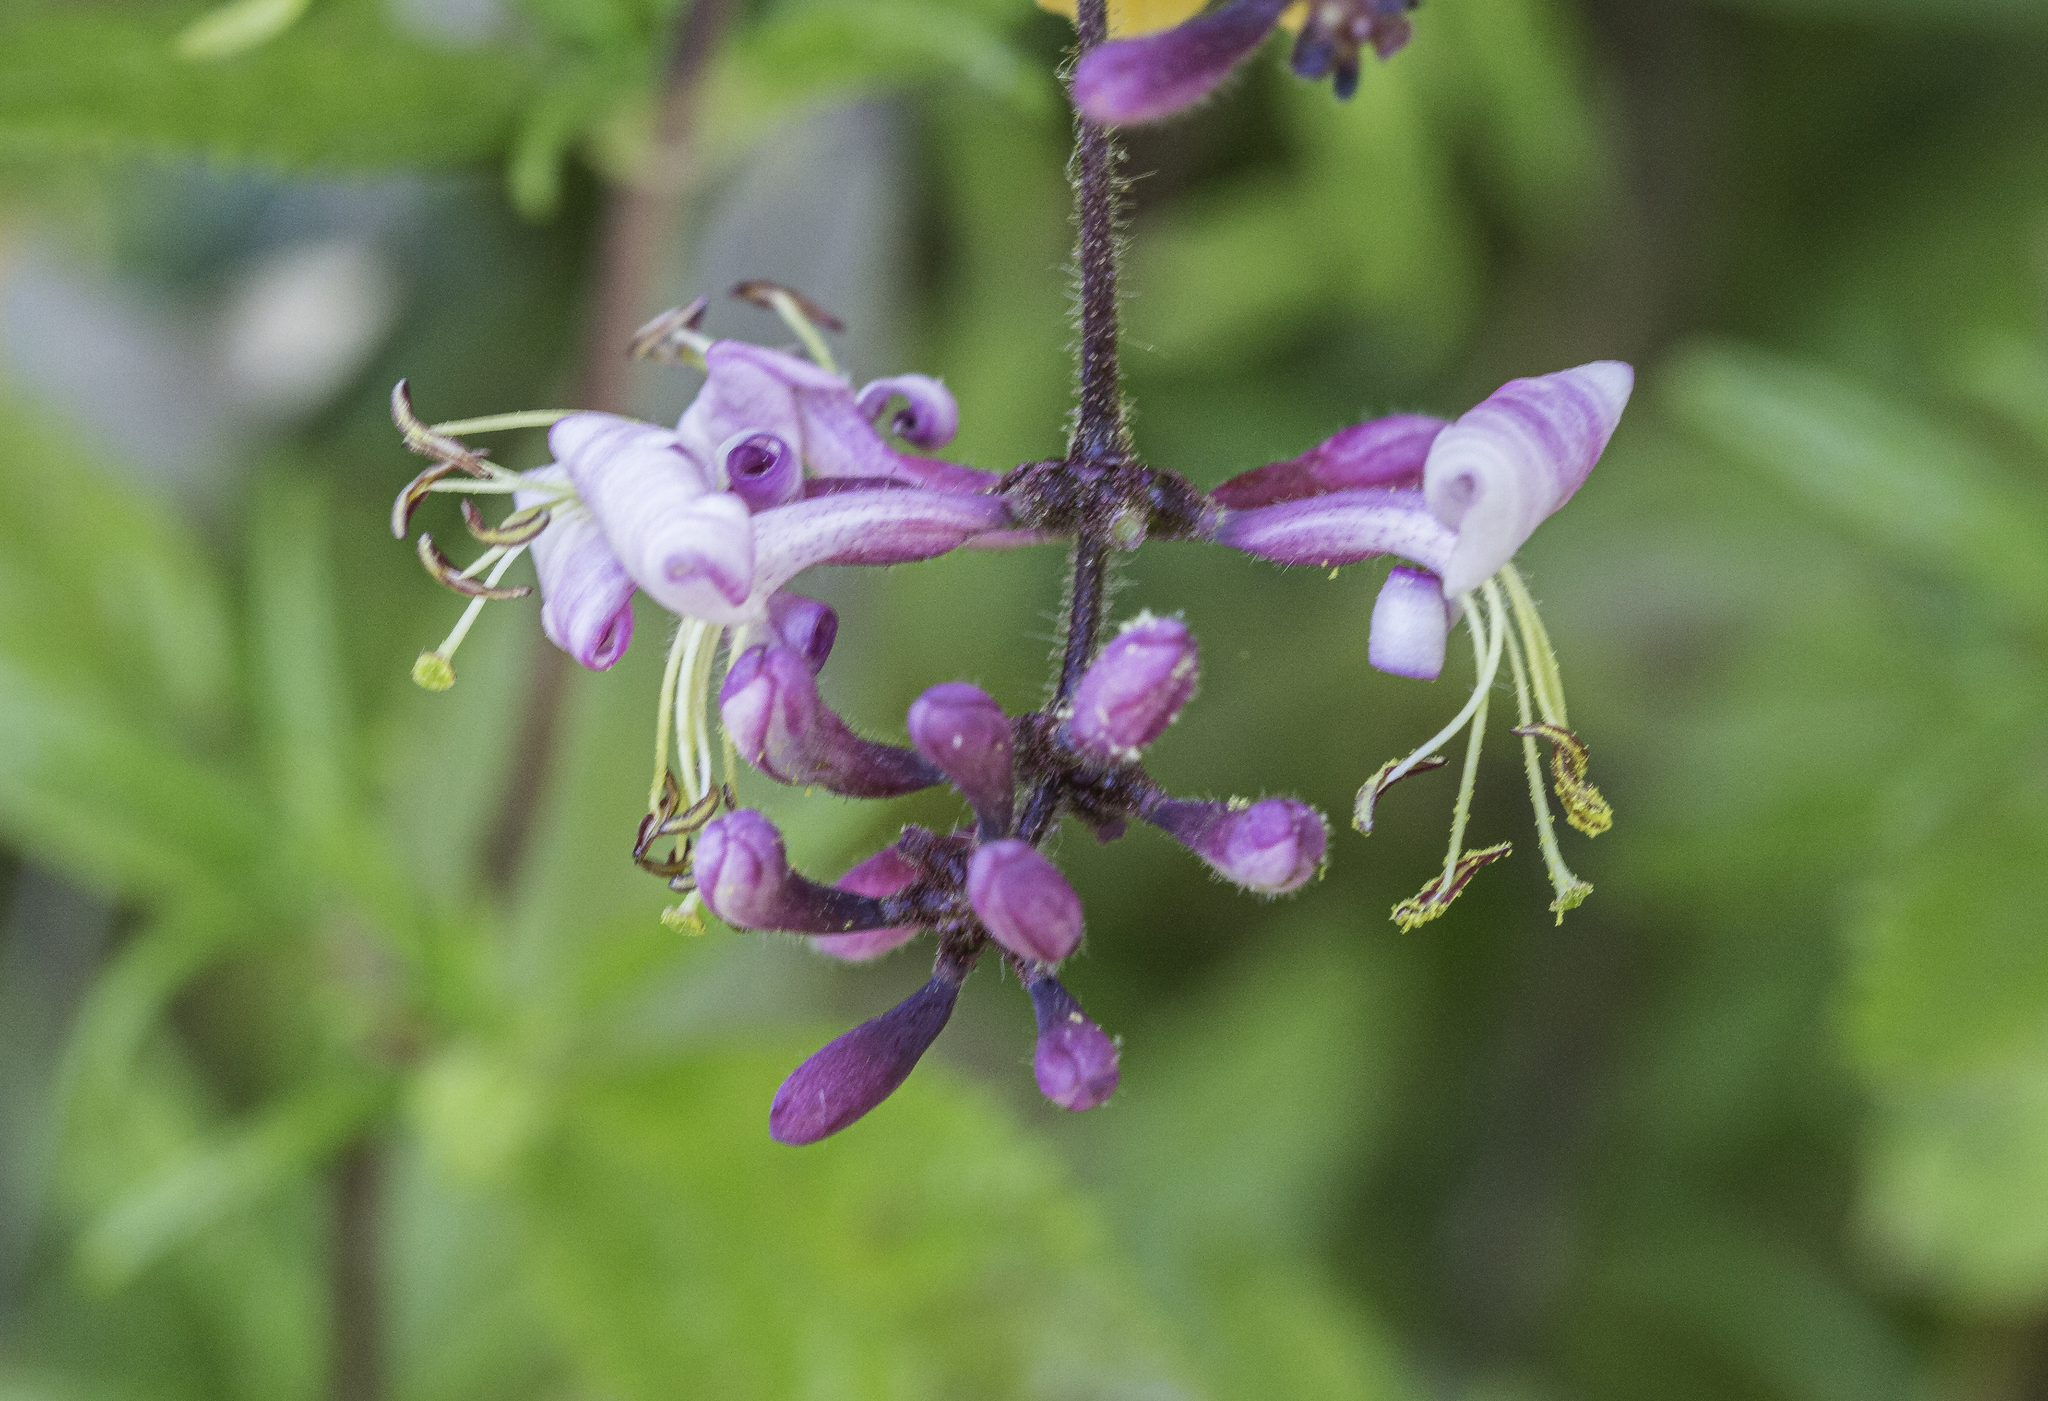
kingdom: Plantae
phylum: Tracheophyta
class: Magnoliopsida
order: Dipsacales
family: Caprifoliaceae
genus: Lonicera
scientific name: Lonicera hispidula
